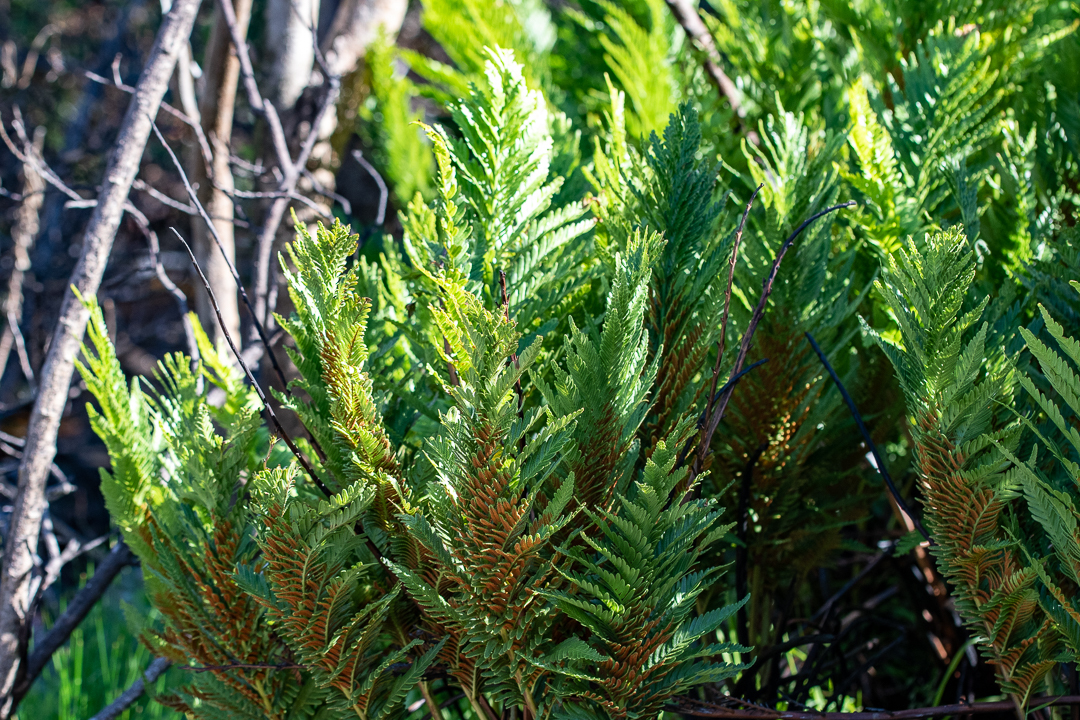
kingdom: Plantae
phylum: Tracheophyta
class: Polypodiopsida
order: Osmundales
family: Osmundaceae
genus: Todea
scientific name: Todea barbara
